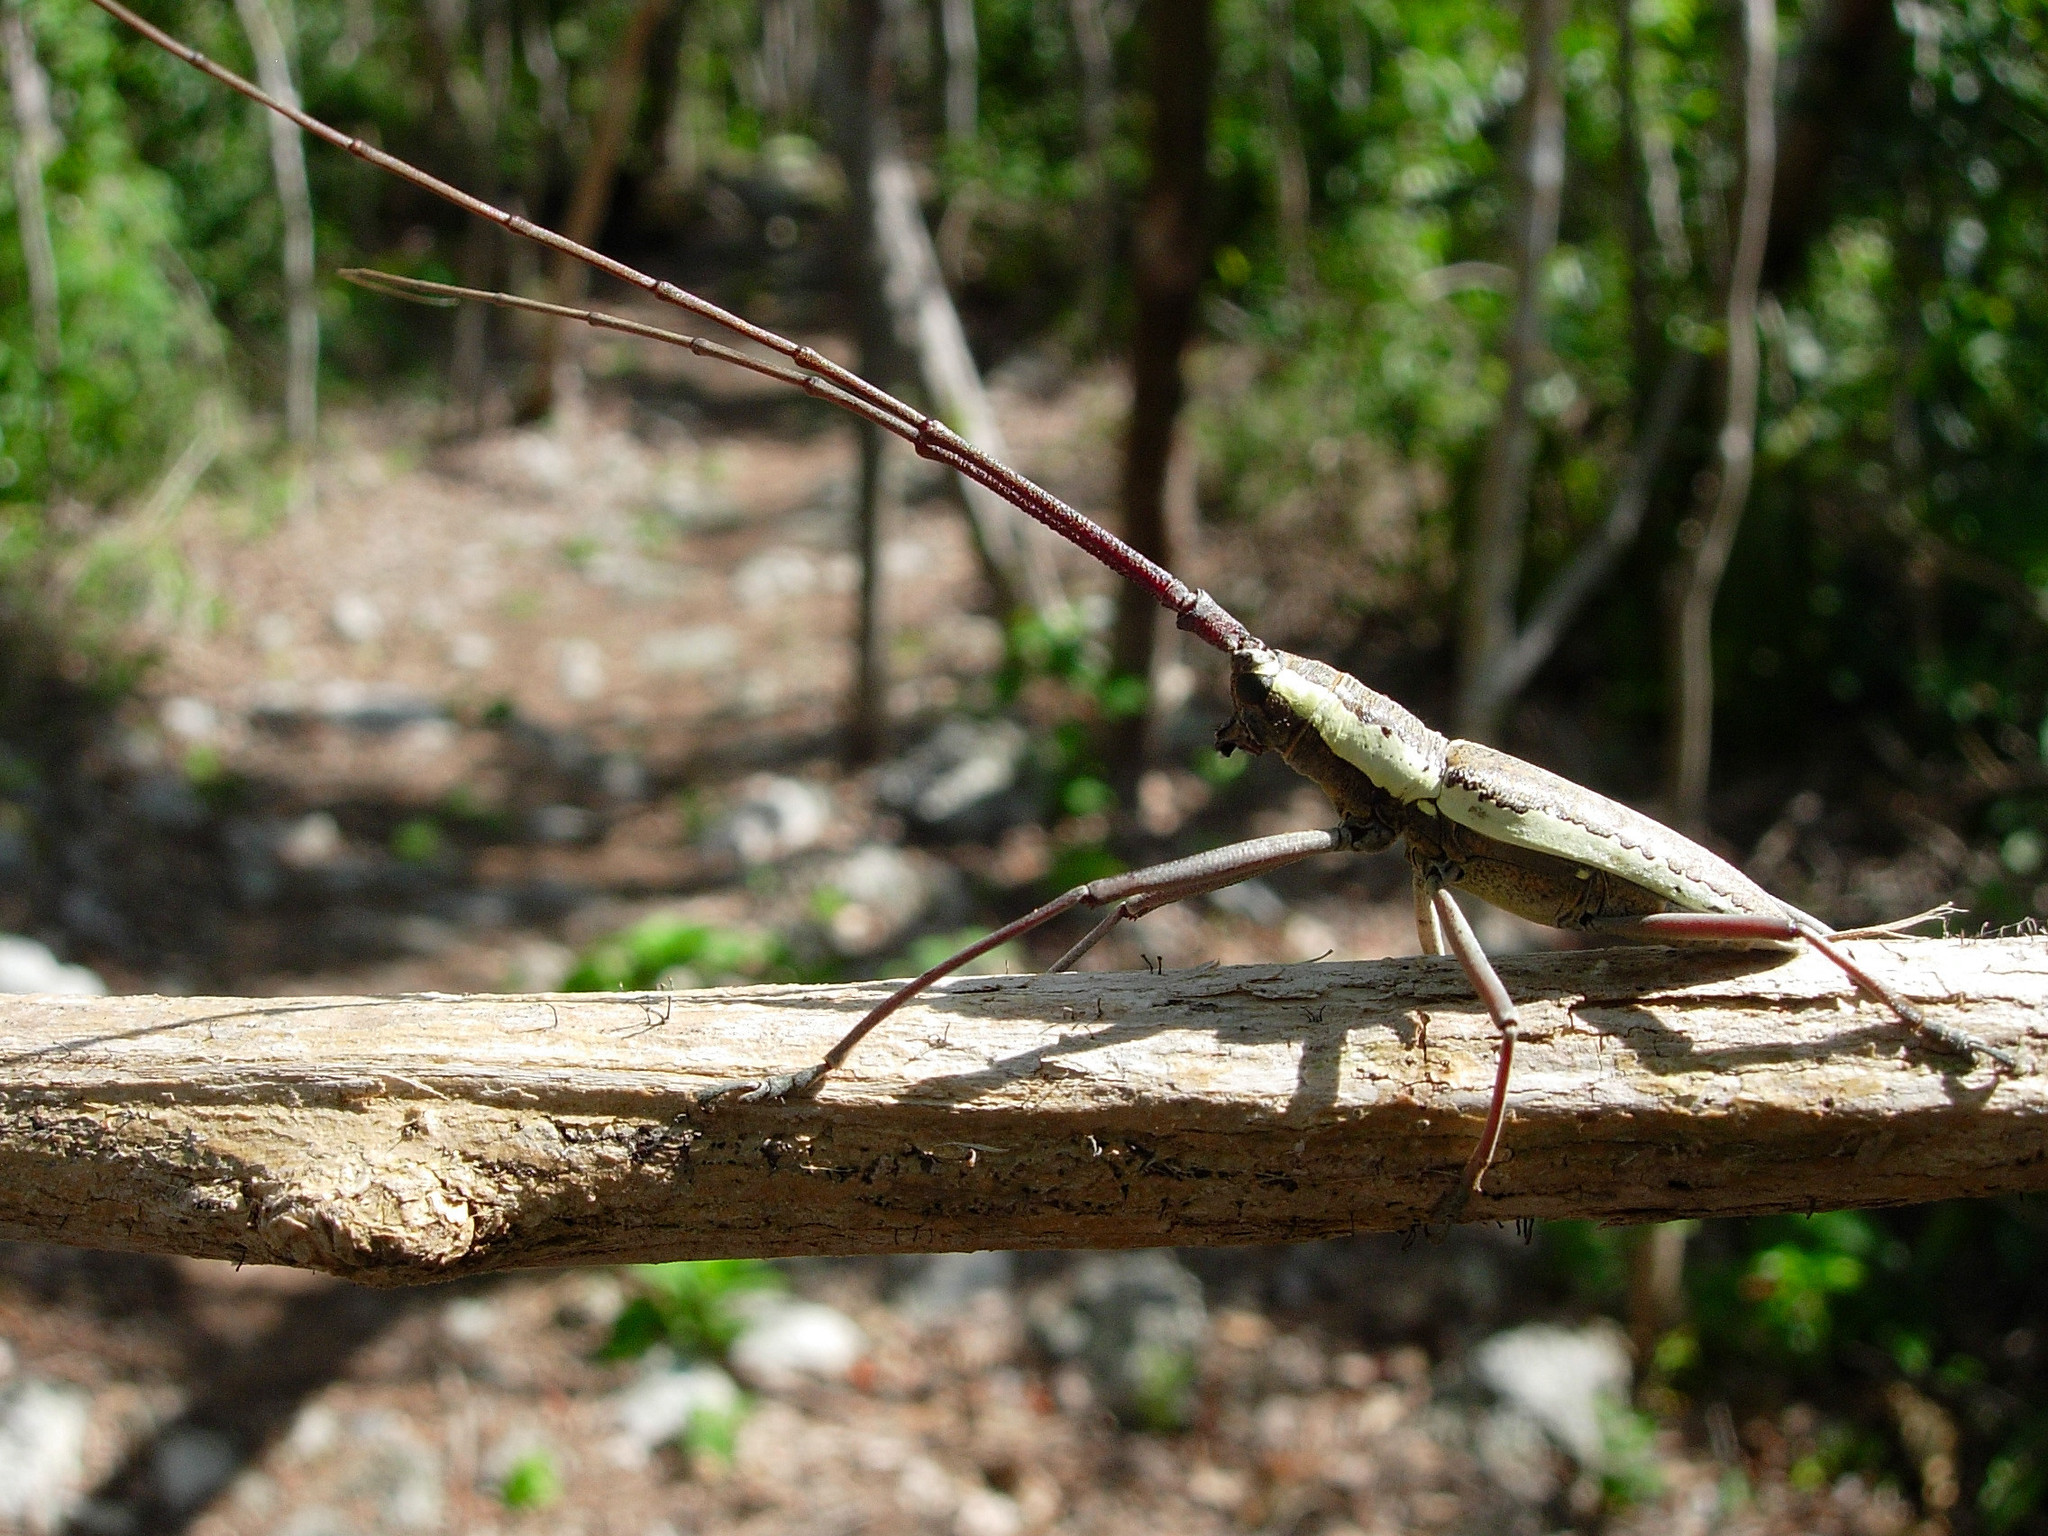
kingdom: Animalia
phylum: Arthropoda
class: Insecta
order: Coleoptera
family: Cerambycidae
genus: Neoptychodes
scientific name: Neoptychodes trilineatus
